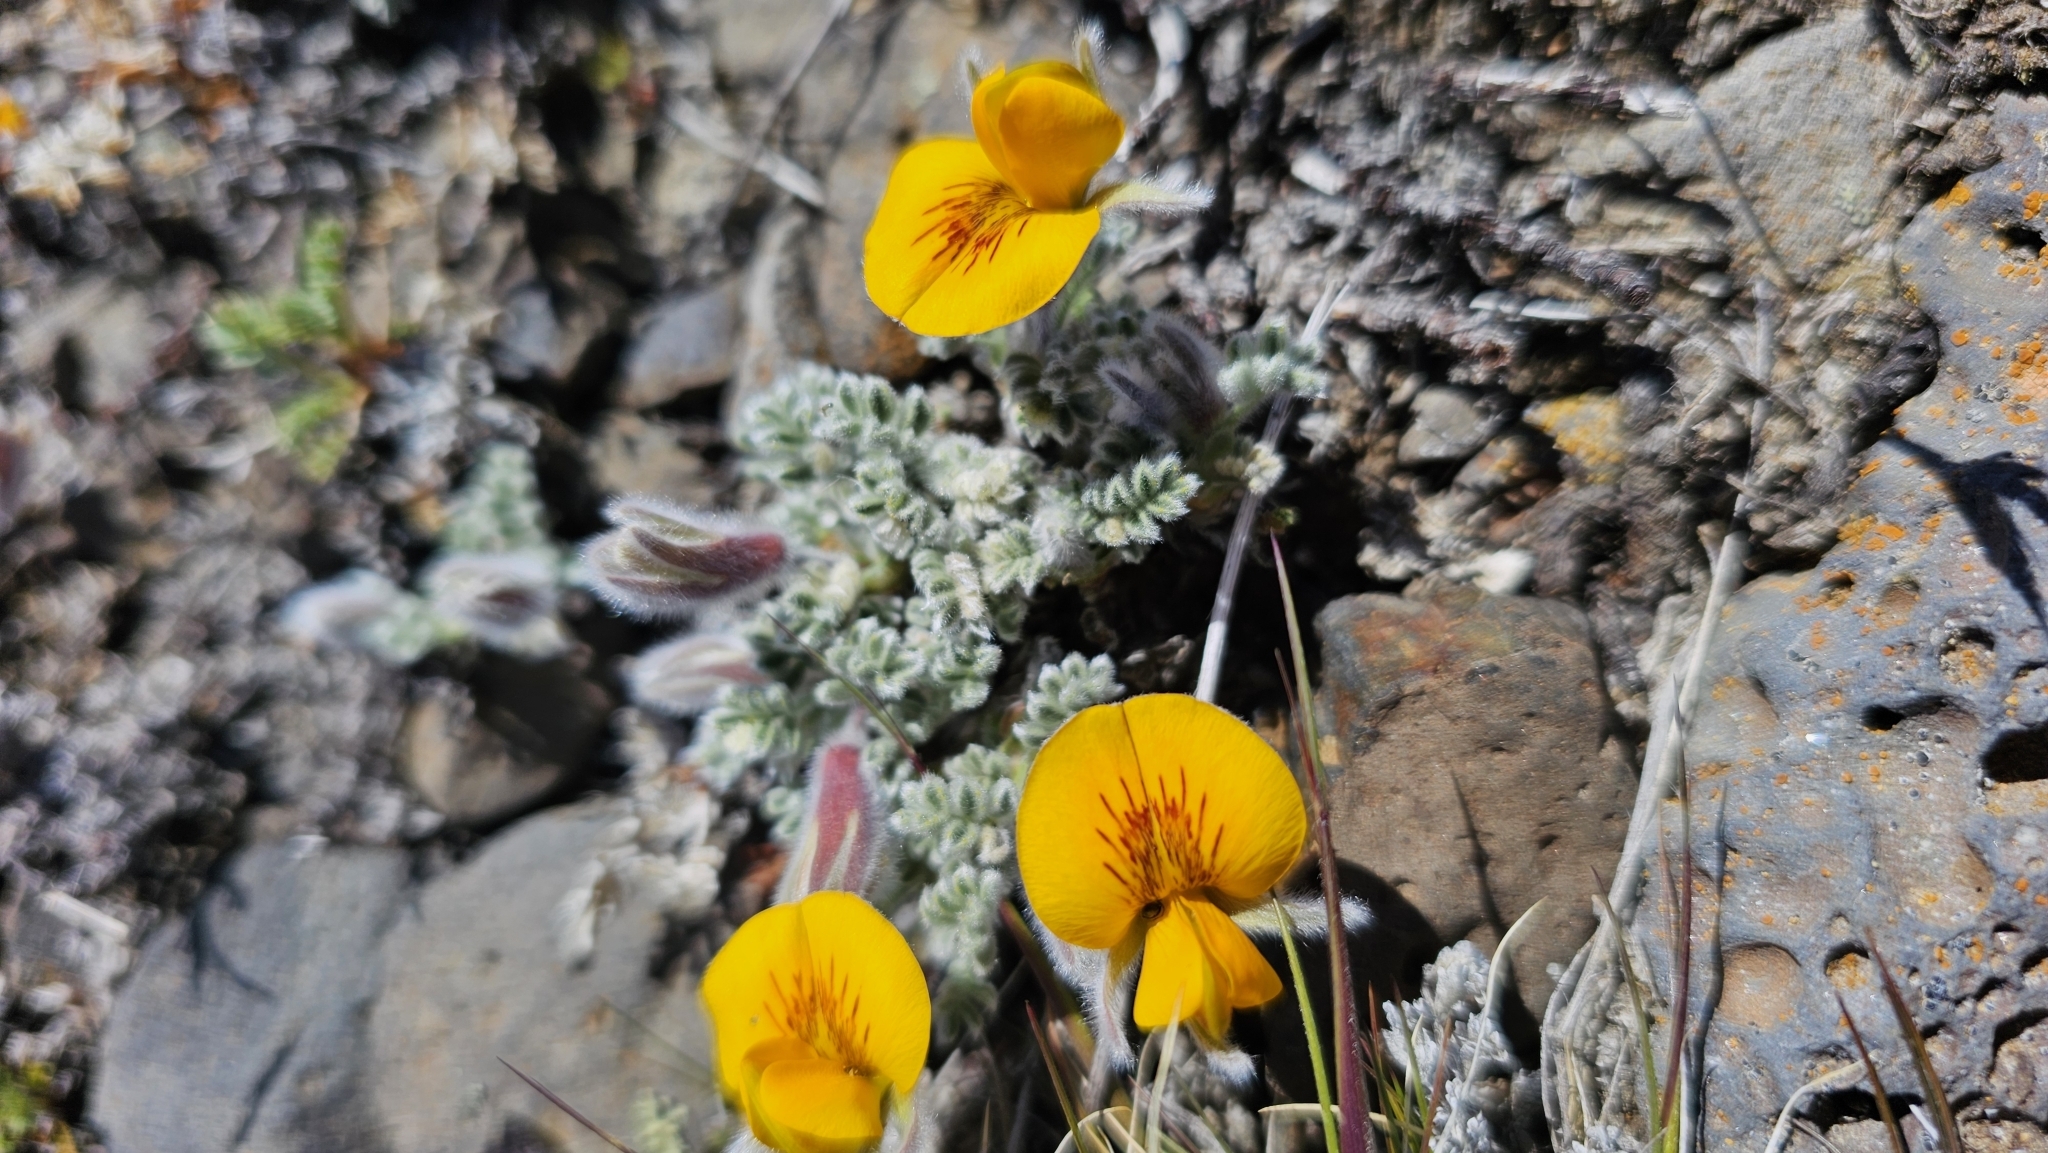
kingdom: Plantae
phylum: Tracheophyta
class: Magnoliopsida
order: Fabales
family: Fabaceae
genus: Adesmia
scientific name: Adesmia villosa
